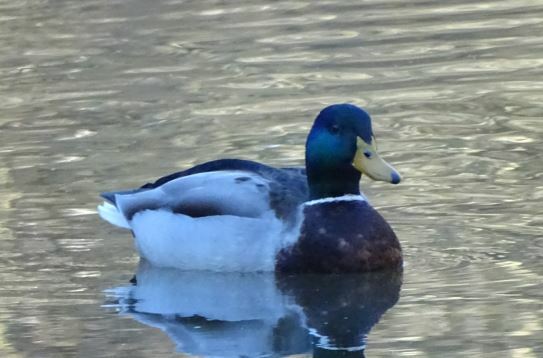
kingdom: Animalia
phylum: Chordata
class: Aves
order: Anseriformes
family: Anatidae
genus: Anas
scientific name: Anas platyrhynchos
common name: Mallard
